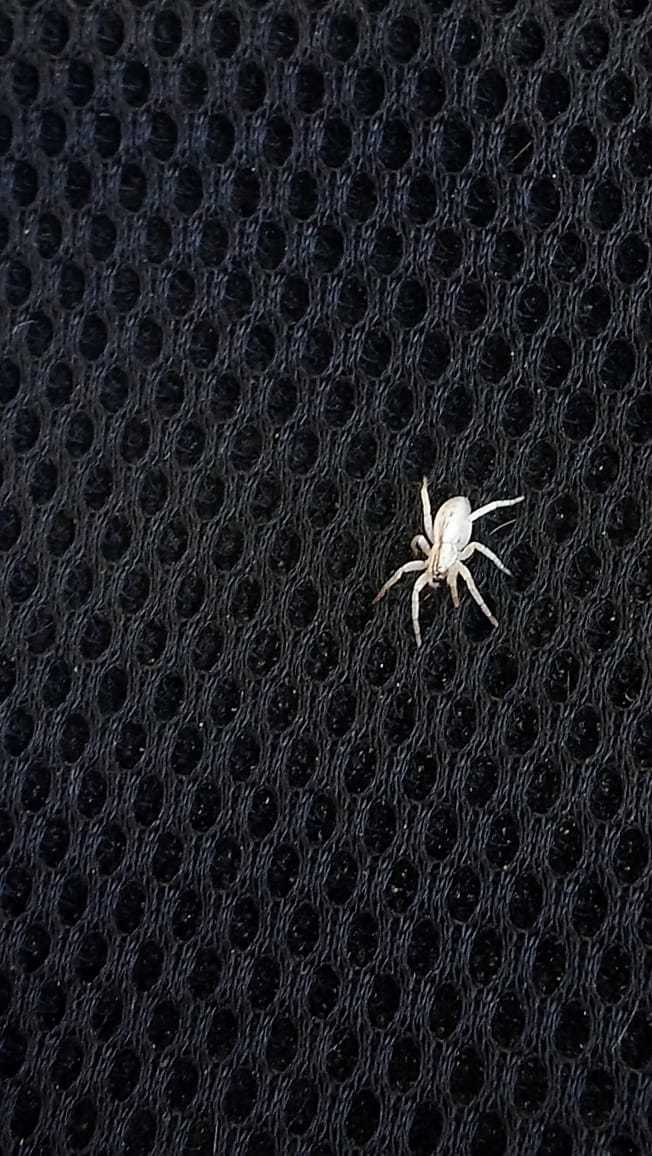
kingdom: Animalia
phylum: Arthropoda
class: Arachnida
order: Araneae
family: Anyphaenidae
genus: Arachosia
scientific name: Arachosia praesignis
